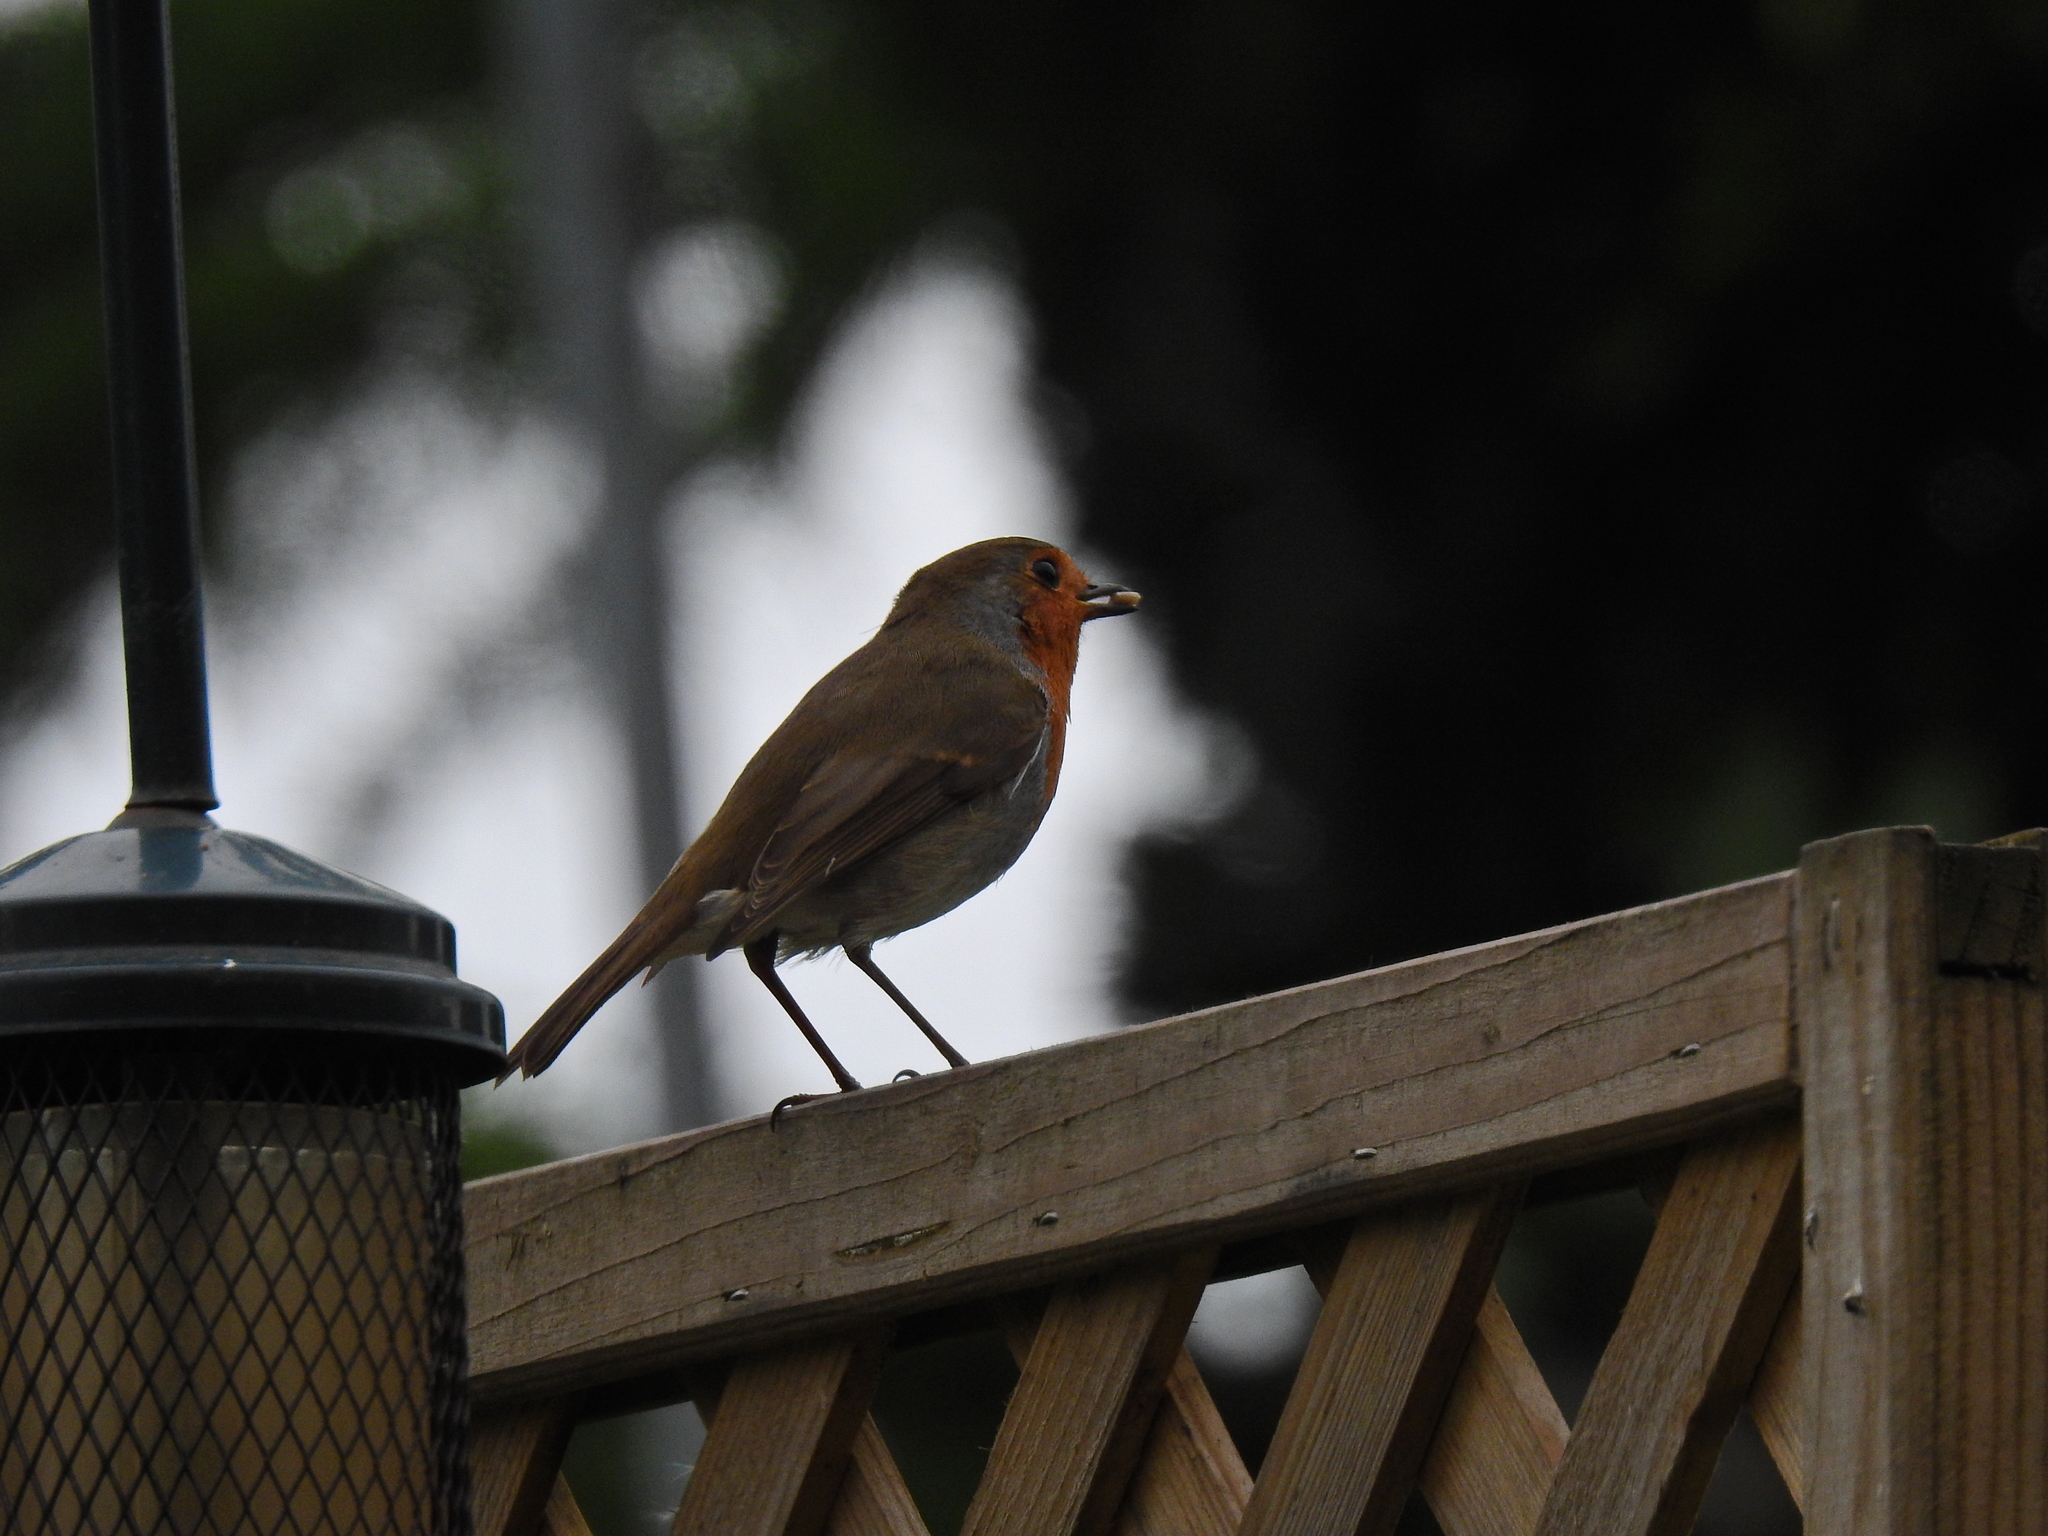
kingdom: Animalia
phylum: Chordata
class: Aves
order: Passeriformes
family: Muscicapidae
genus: Erithacus
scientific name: Erithacus rubecula
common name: European robin
